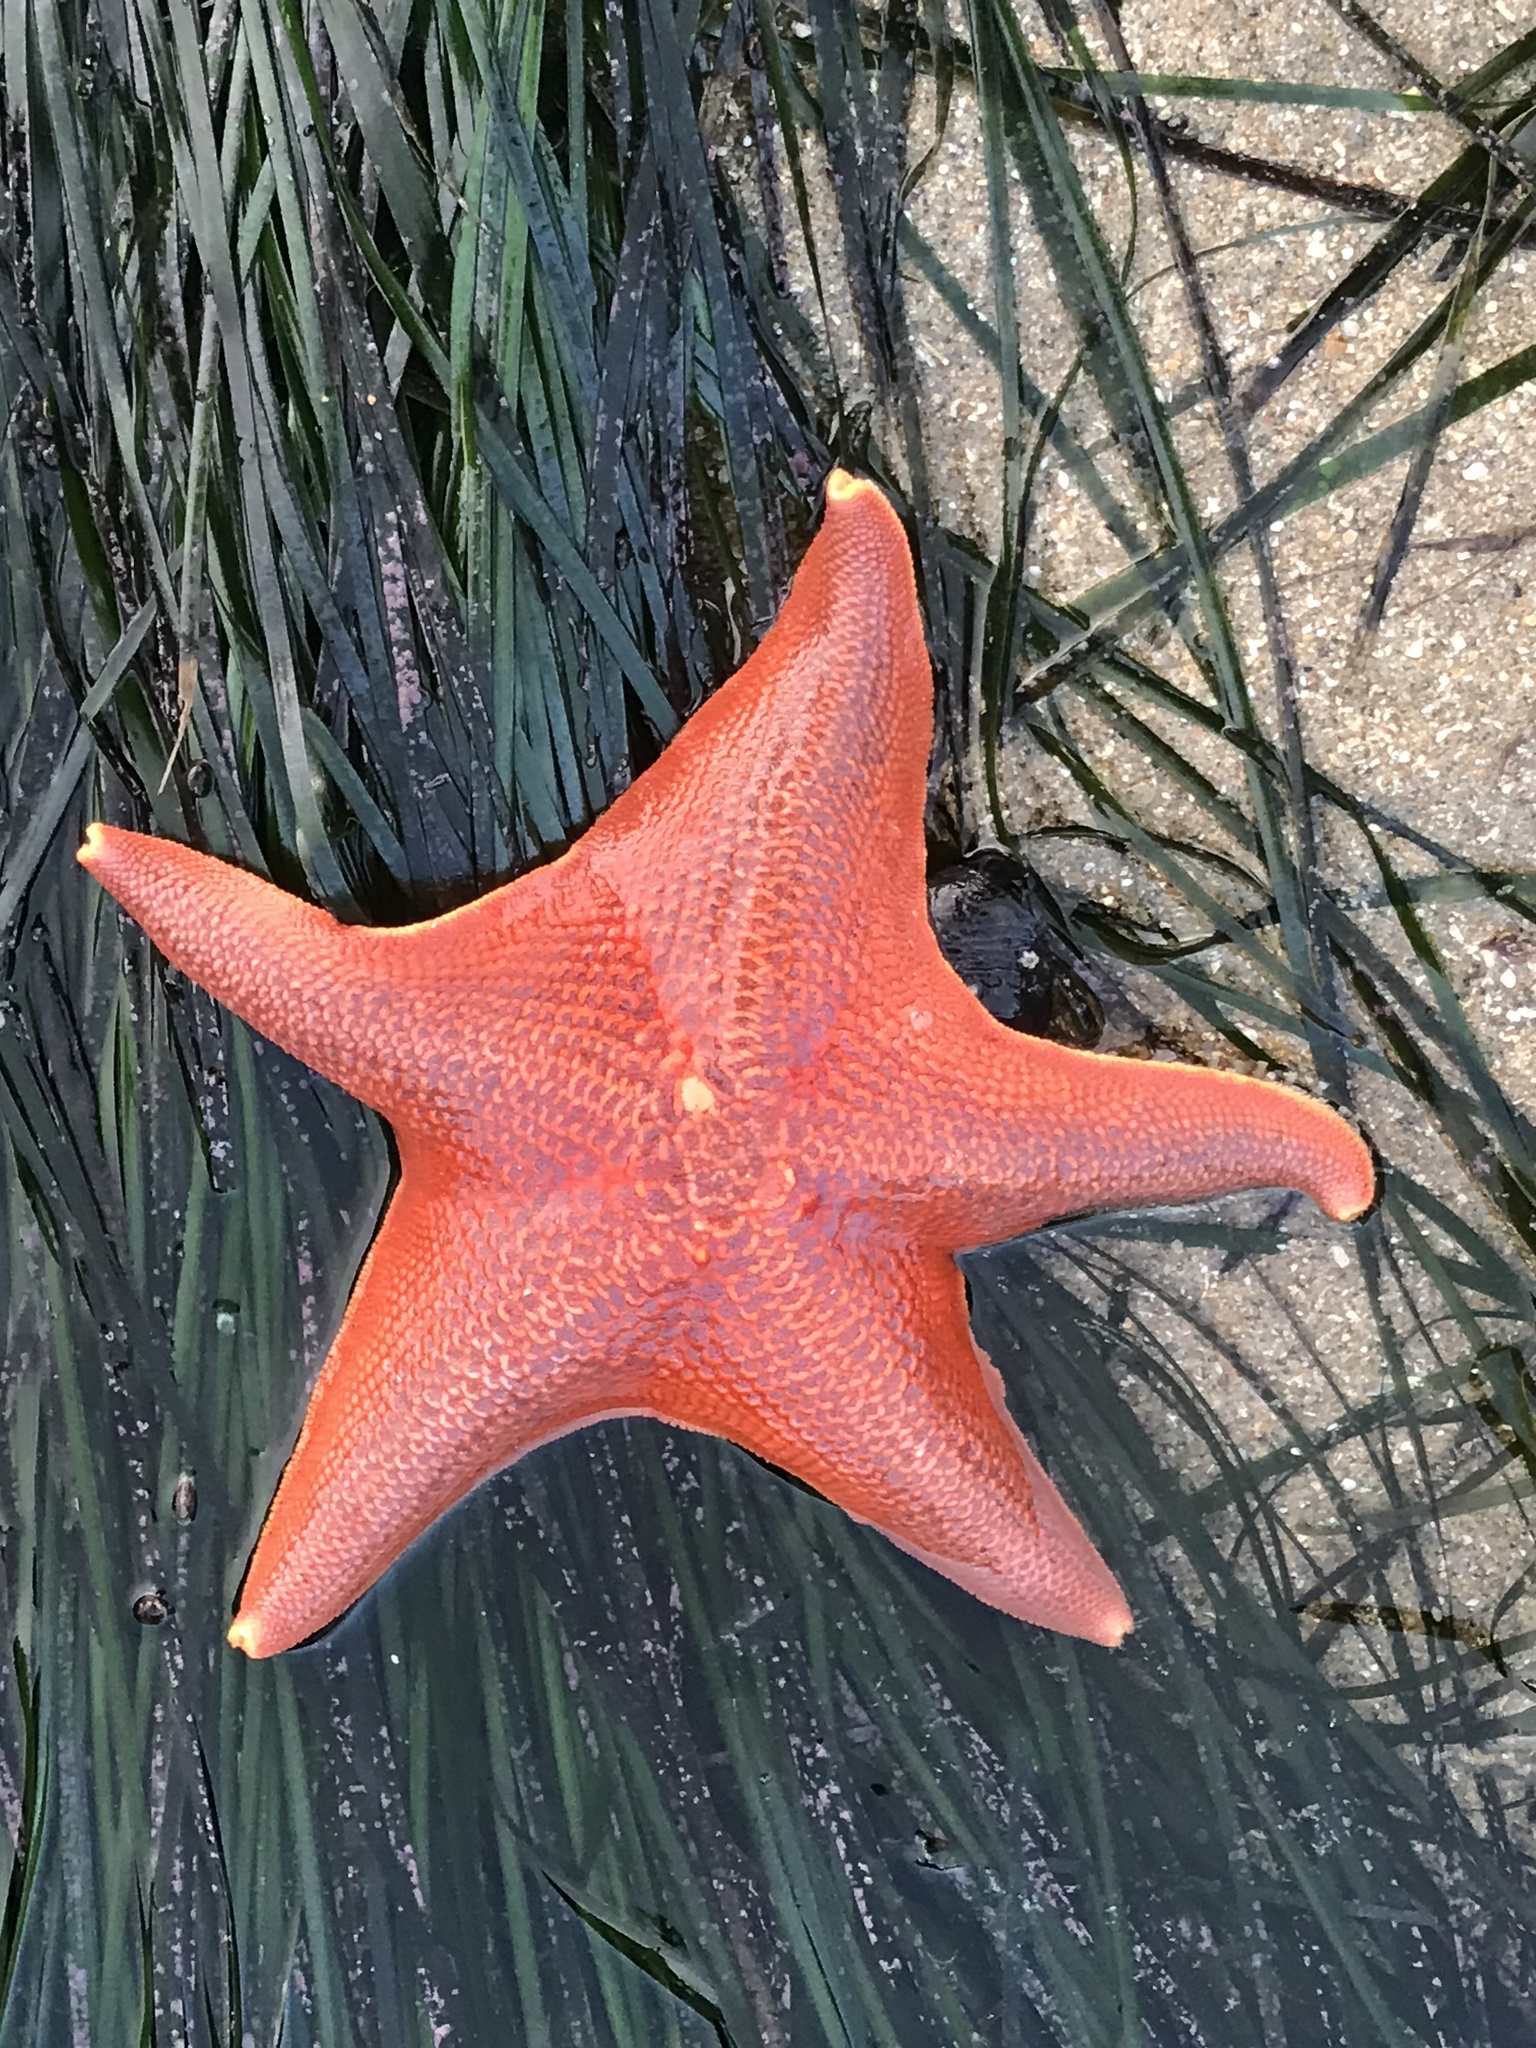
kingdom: Animalia
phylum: Echinodermata
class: Asteroidea
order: Valvatida
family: Asterinidae
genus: Patiria
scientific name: Patiria miniata
